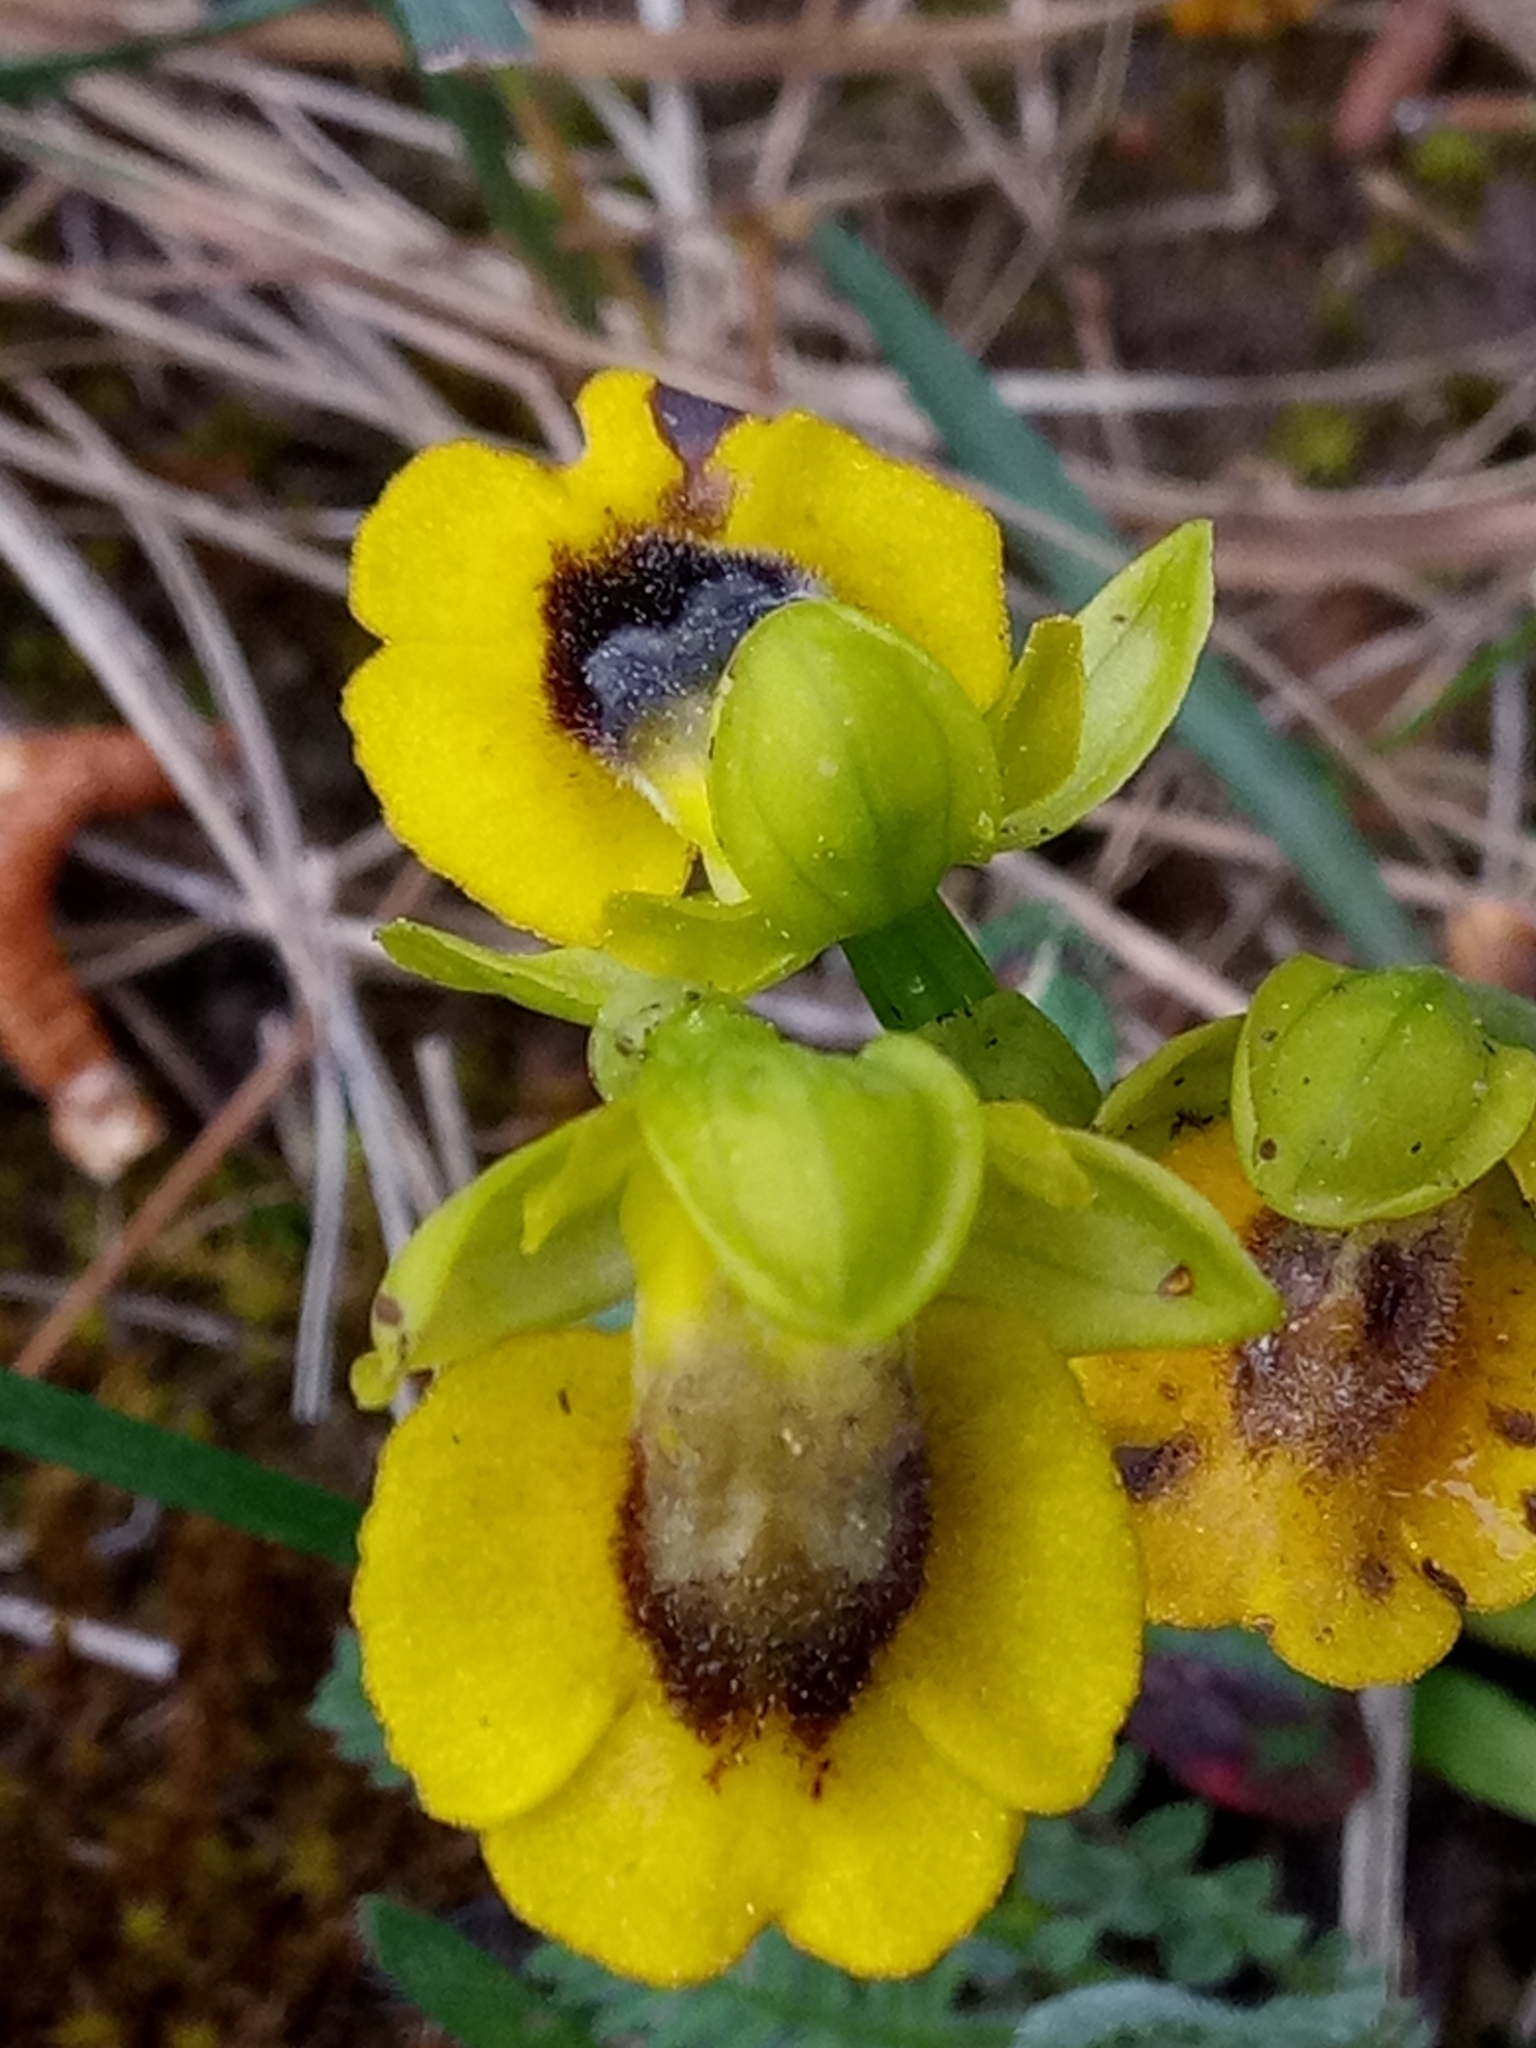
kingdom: Plantae
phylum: Tracheophyta
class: Liliopsida
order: Asparagales
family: Orchidaceae
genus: Ophrys
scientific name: Ophrys lutea
